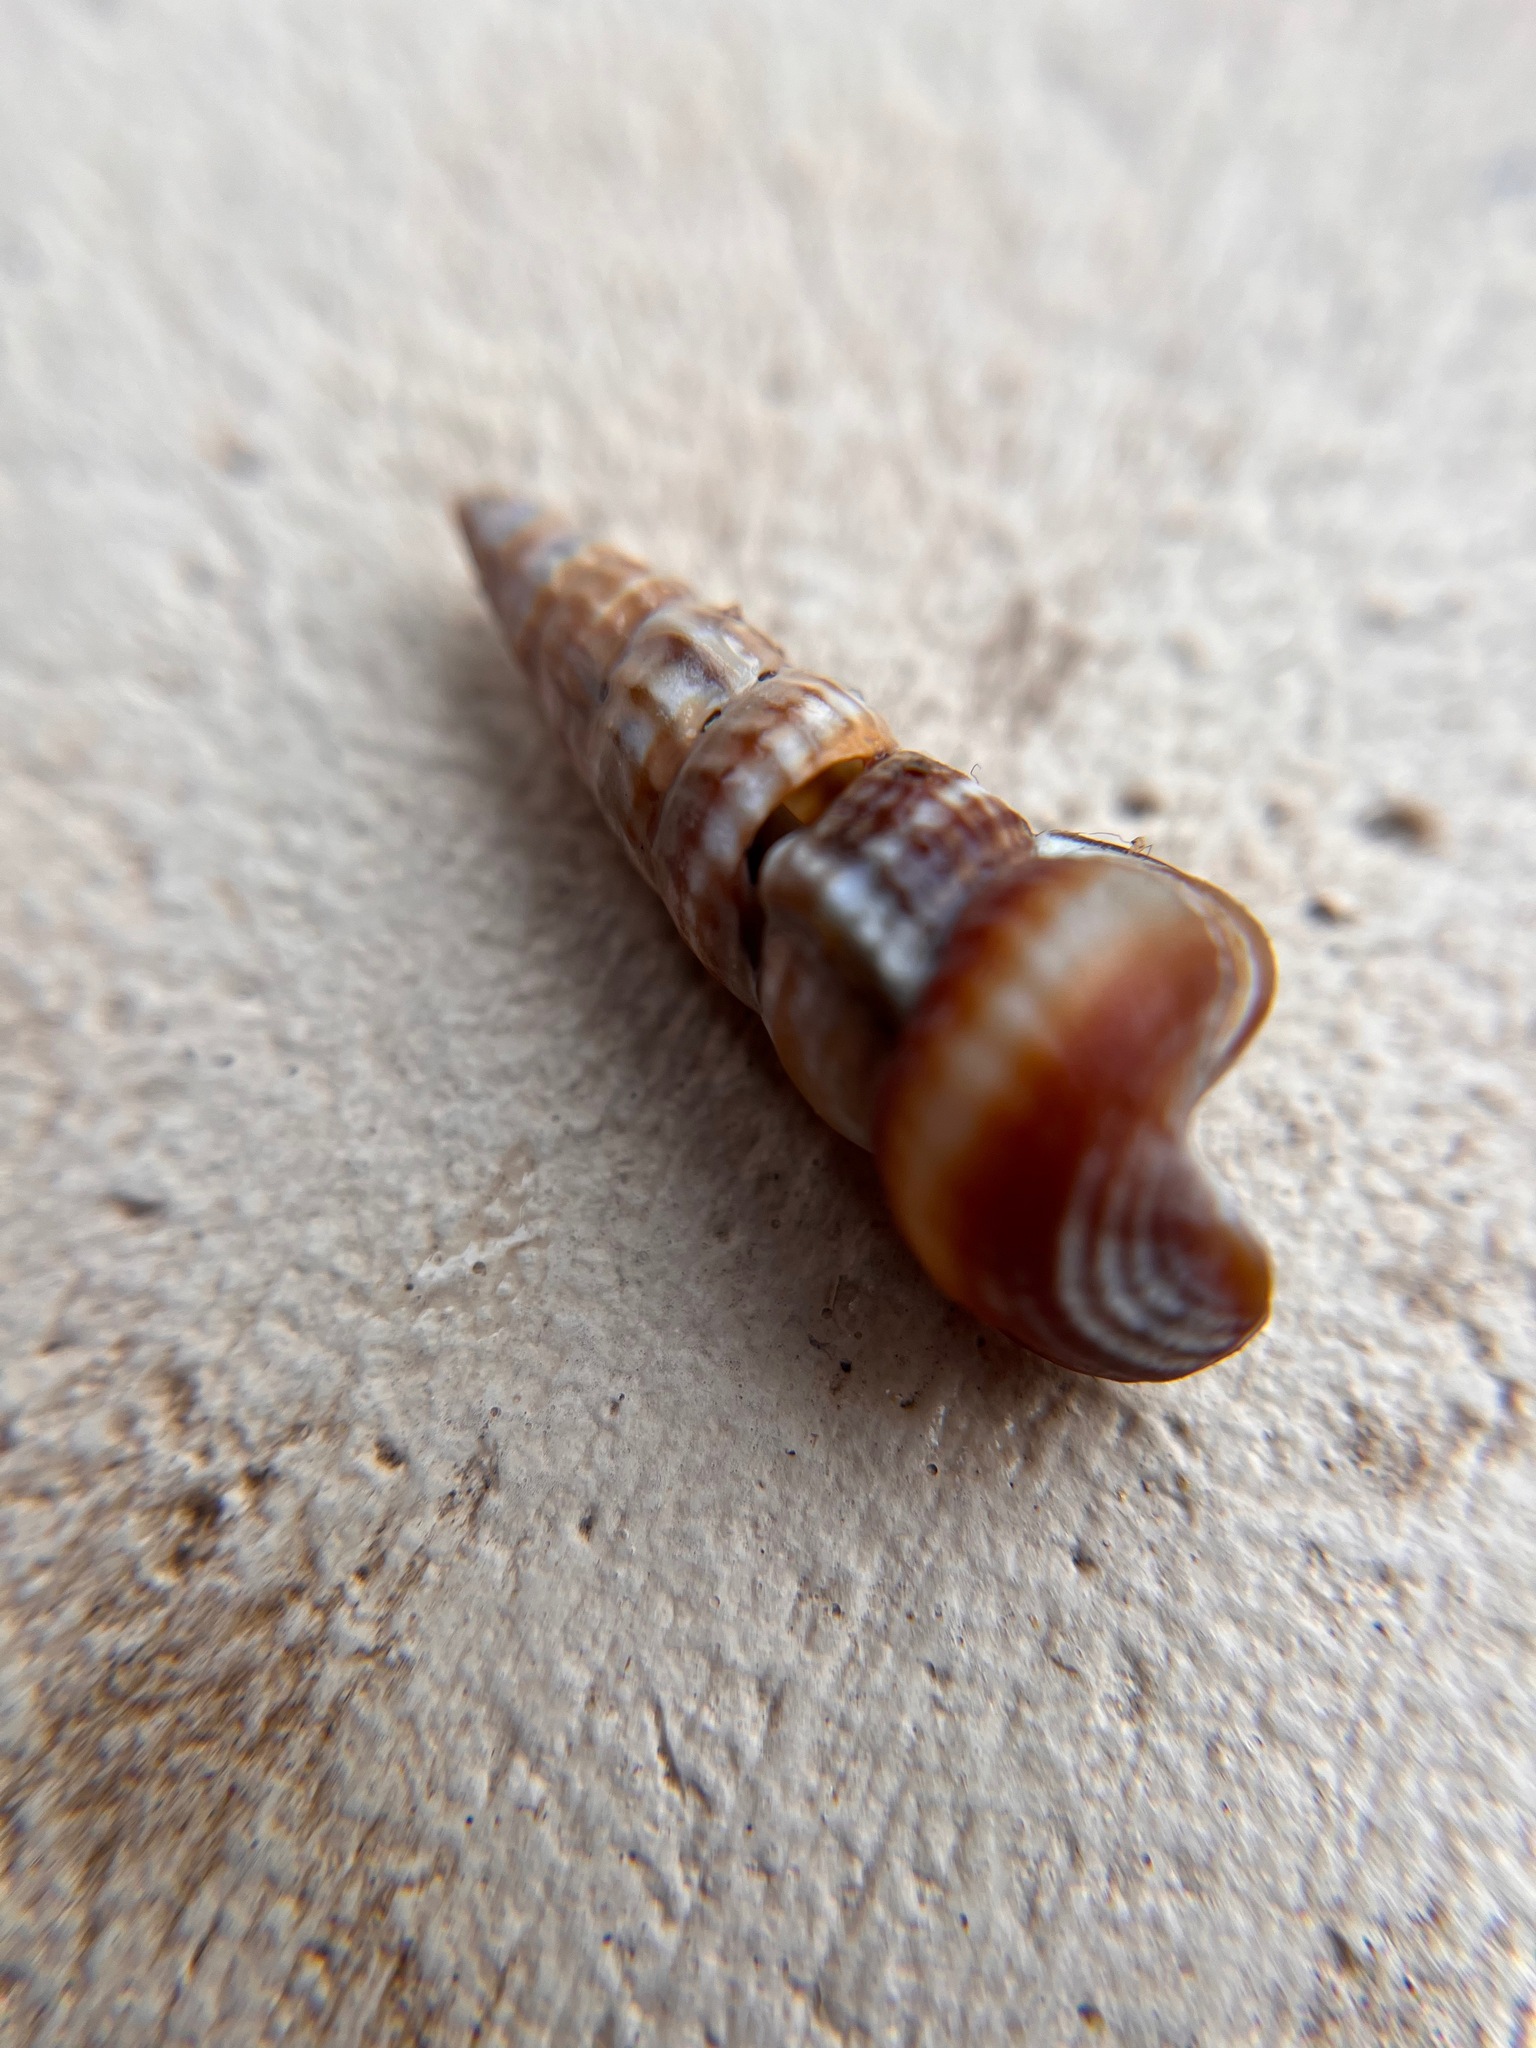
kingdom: Animalia
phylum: Mollusca
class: Gastropoda
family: Potamididae
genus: Cerithideopsis
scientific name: Cerithideopsis californica
